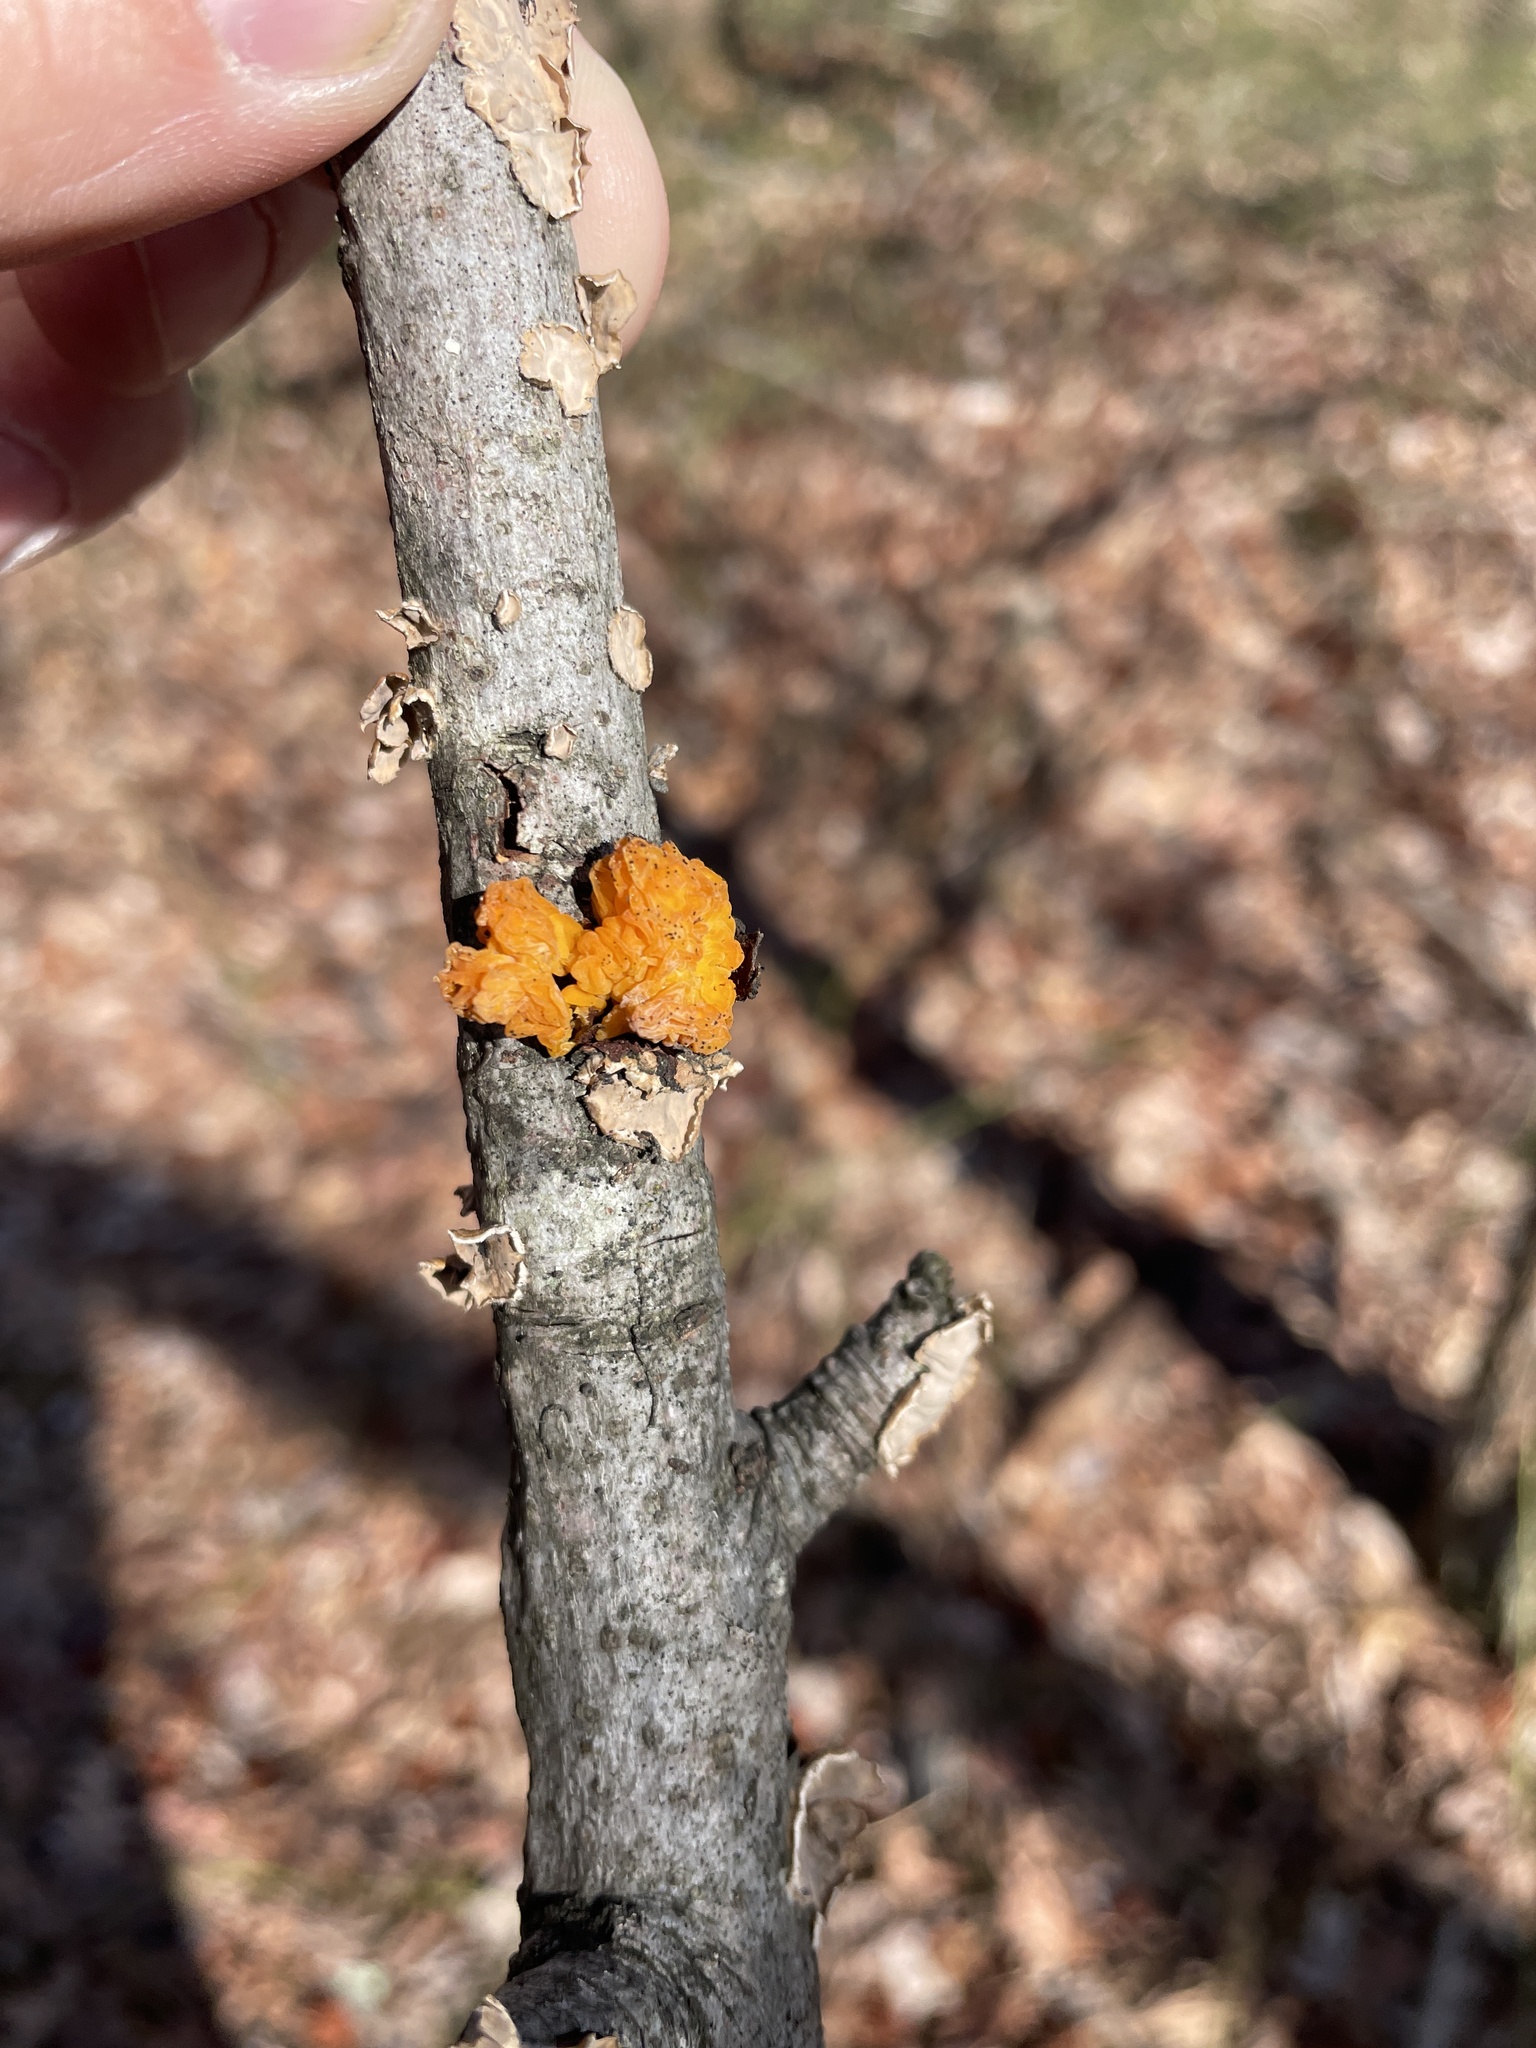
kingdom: Fungi
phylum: Basidiomycota
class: Tremellomycetes
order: Tremellales
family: Naemateliaceae
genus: Naematelia
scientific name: Naematelia aurantia
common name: Golden ear
